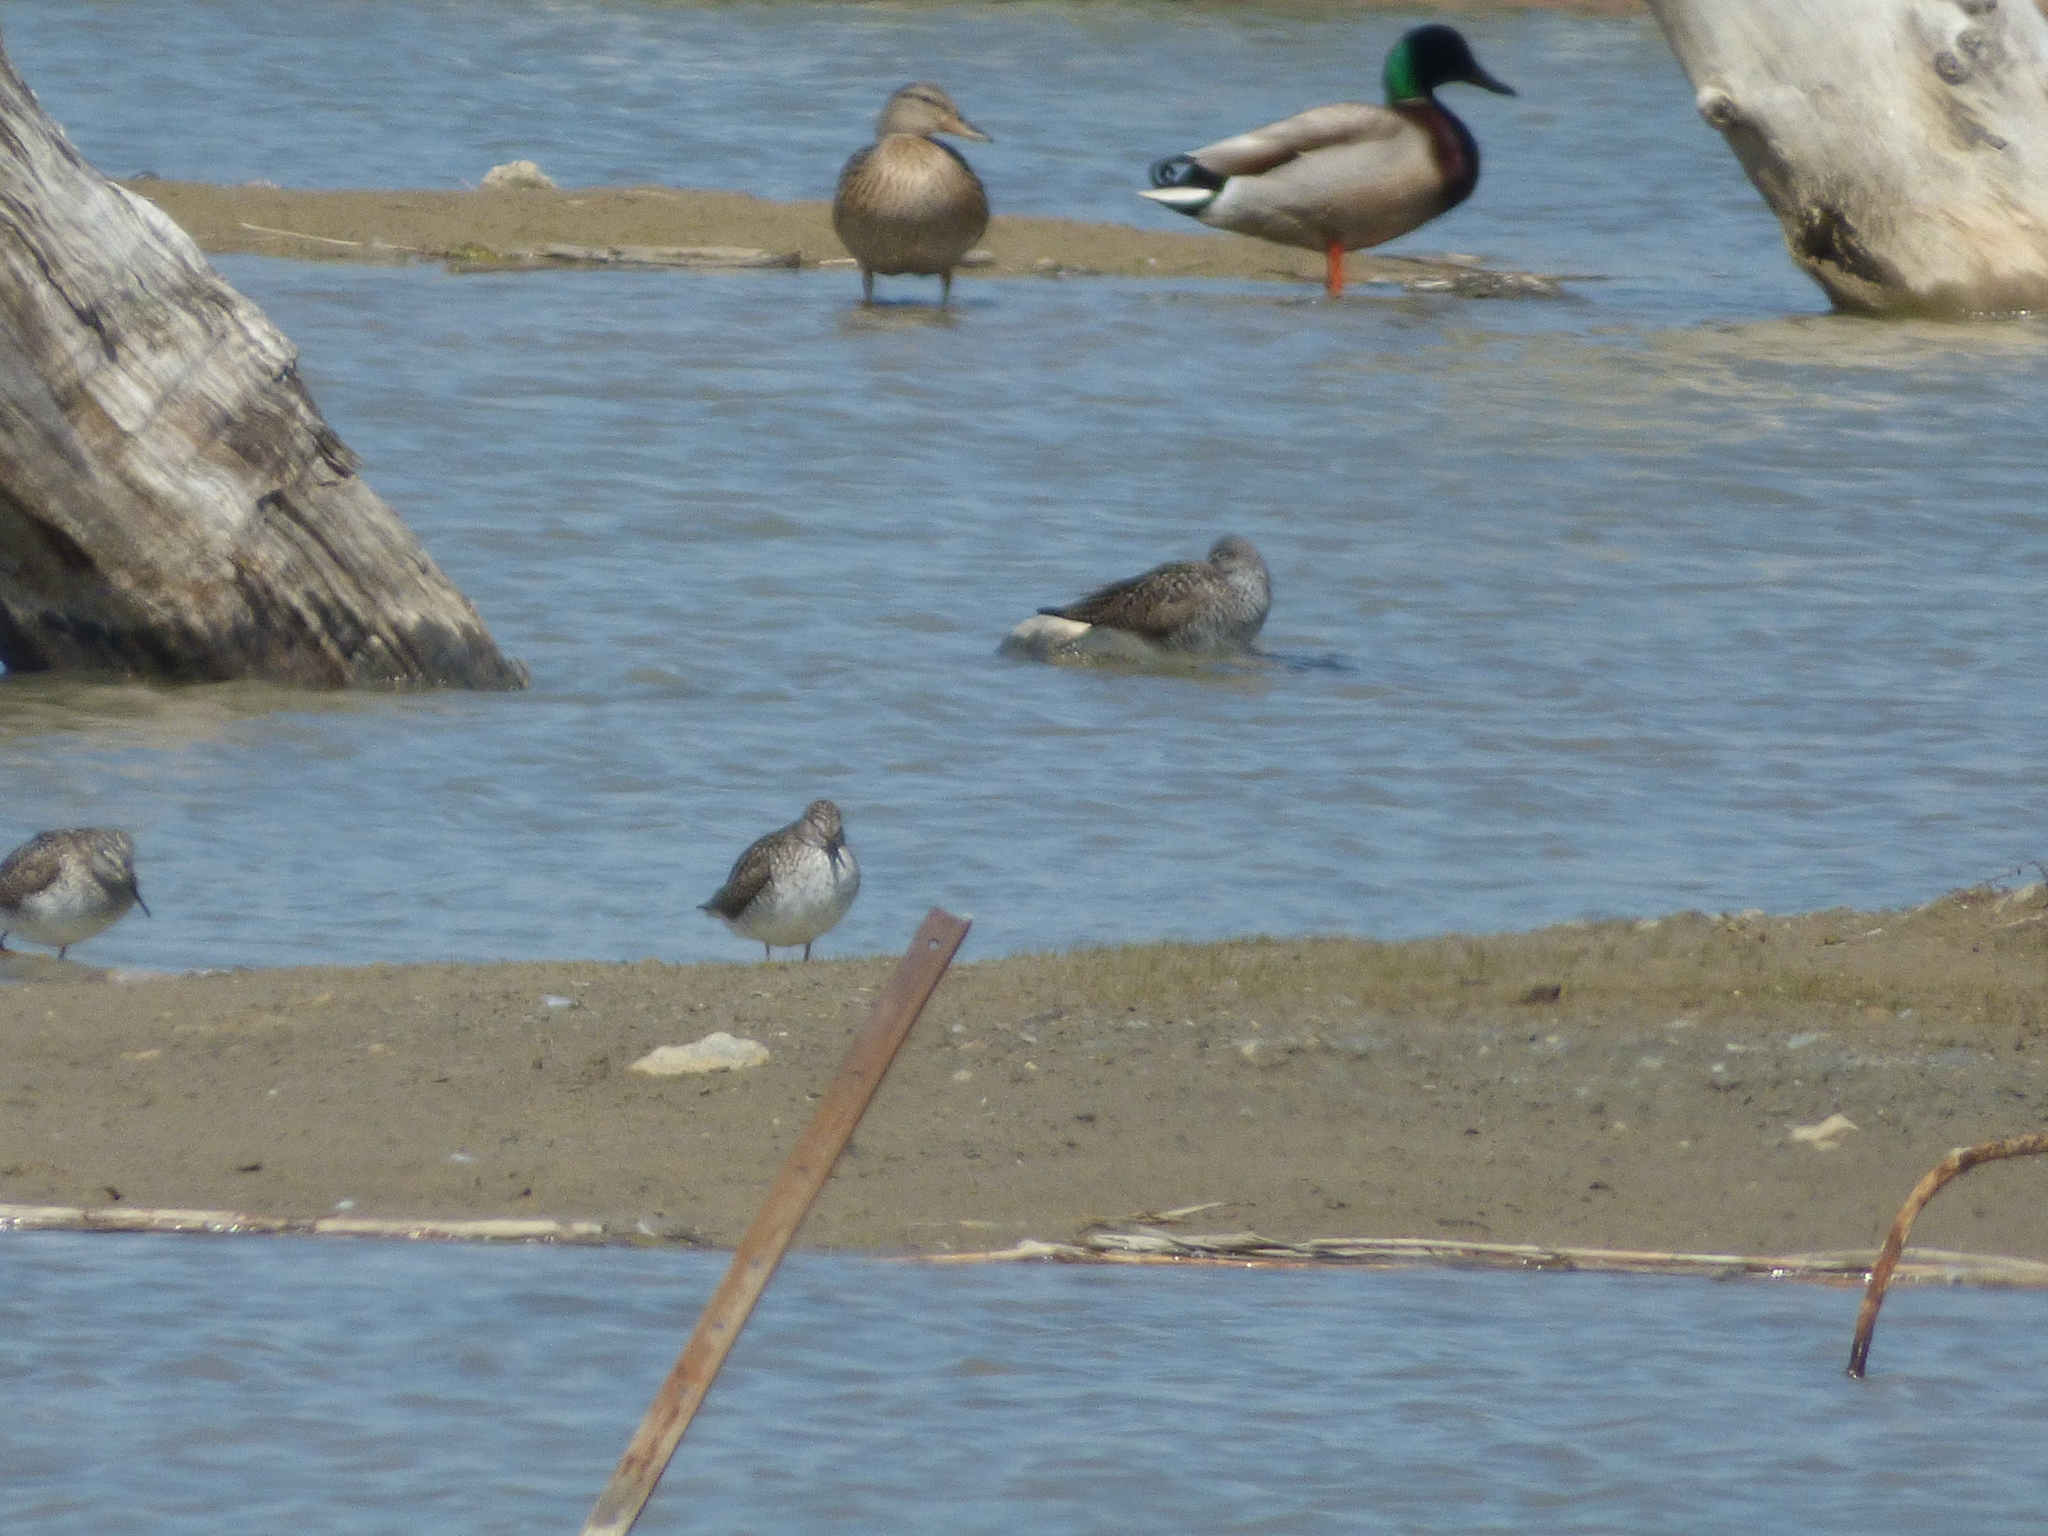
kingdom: Animalia
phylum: Chordata
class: Aves
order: Anseriformes
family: Anatidae
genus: Anas
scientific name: Anas platyrhynchos
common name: Mallard
